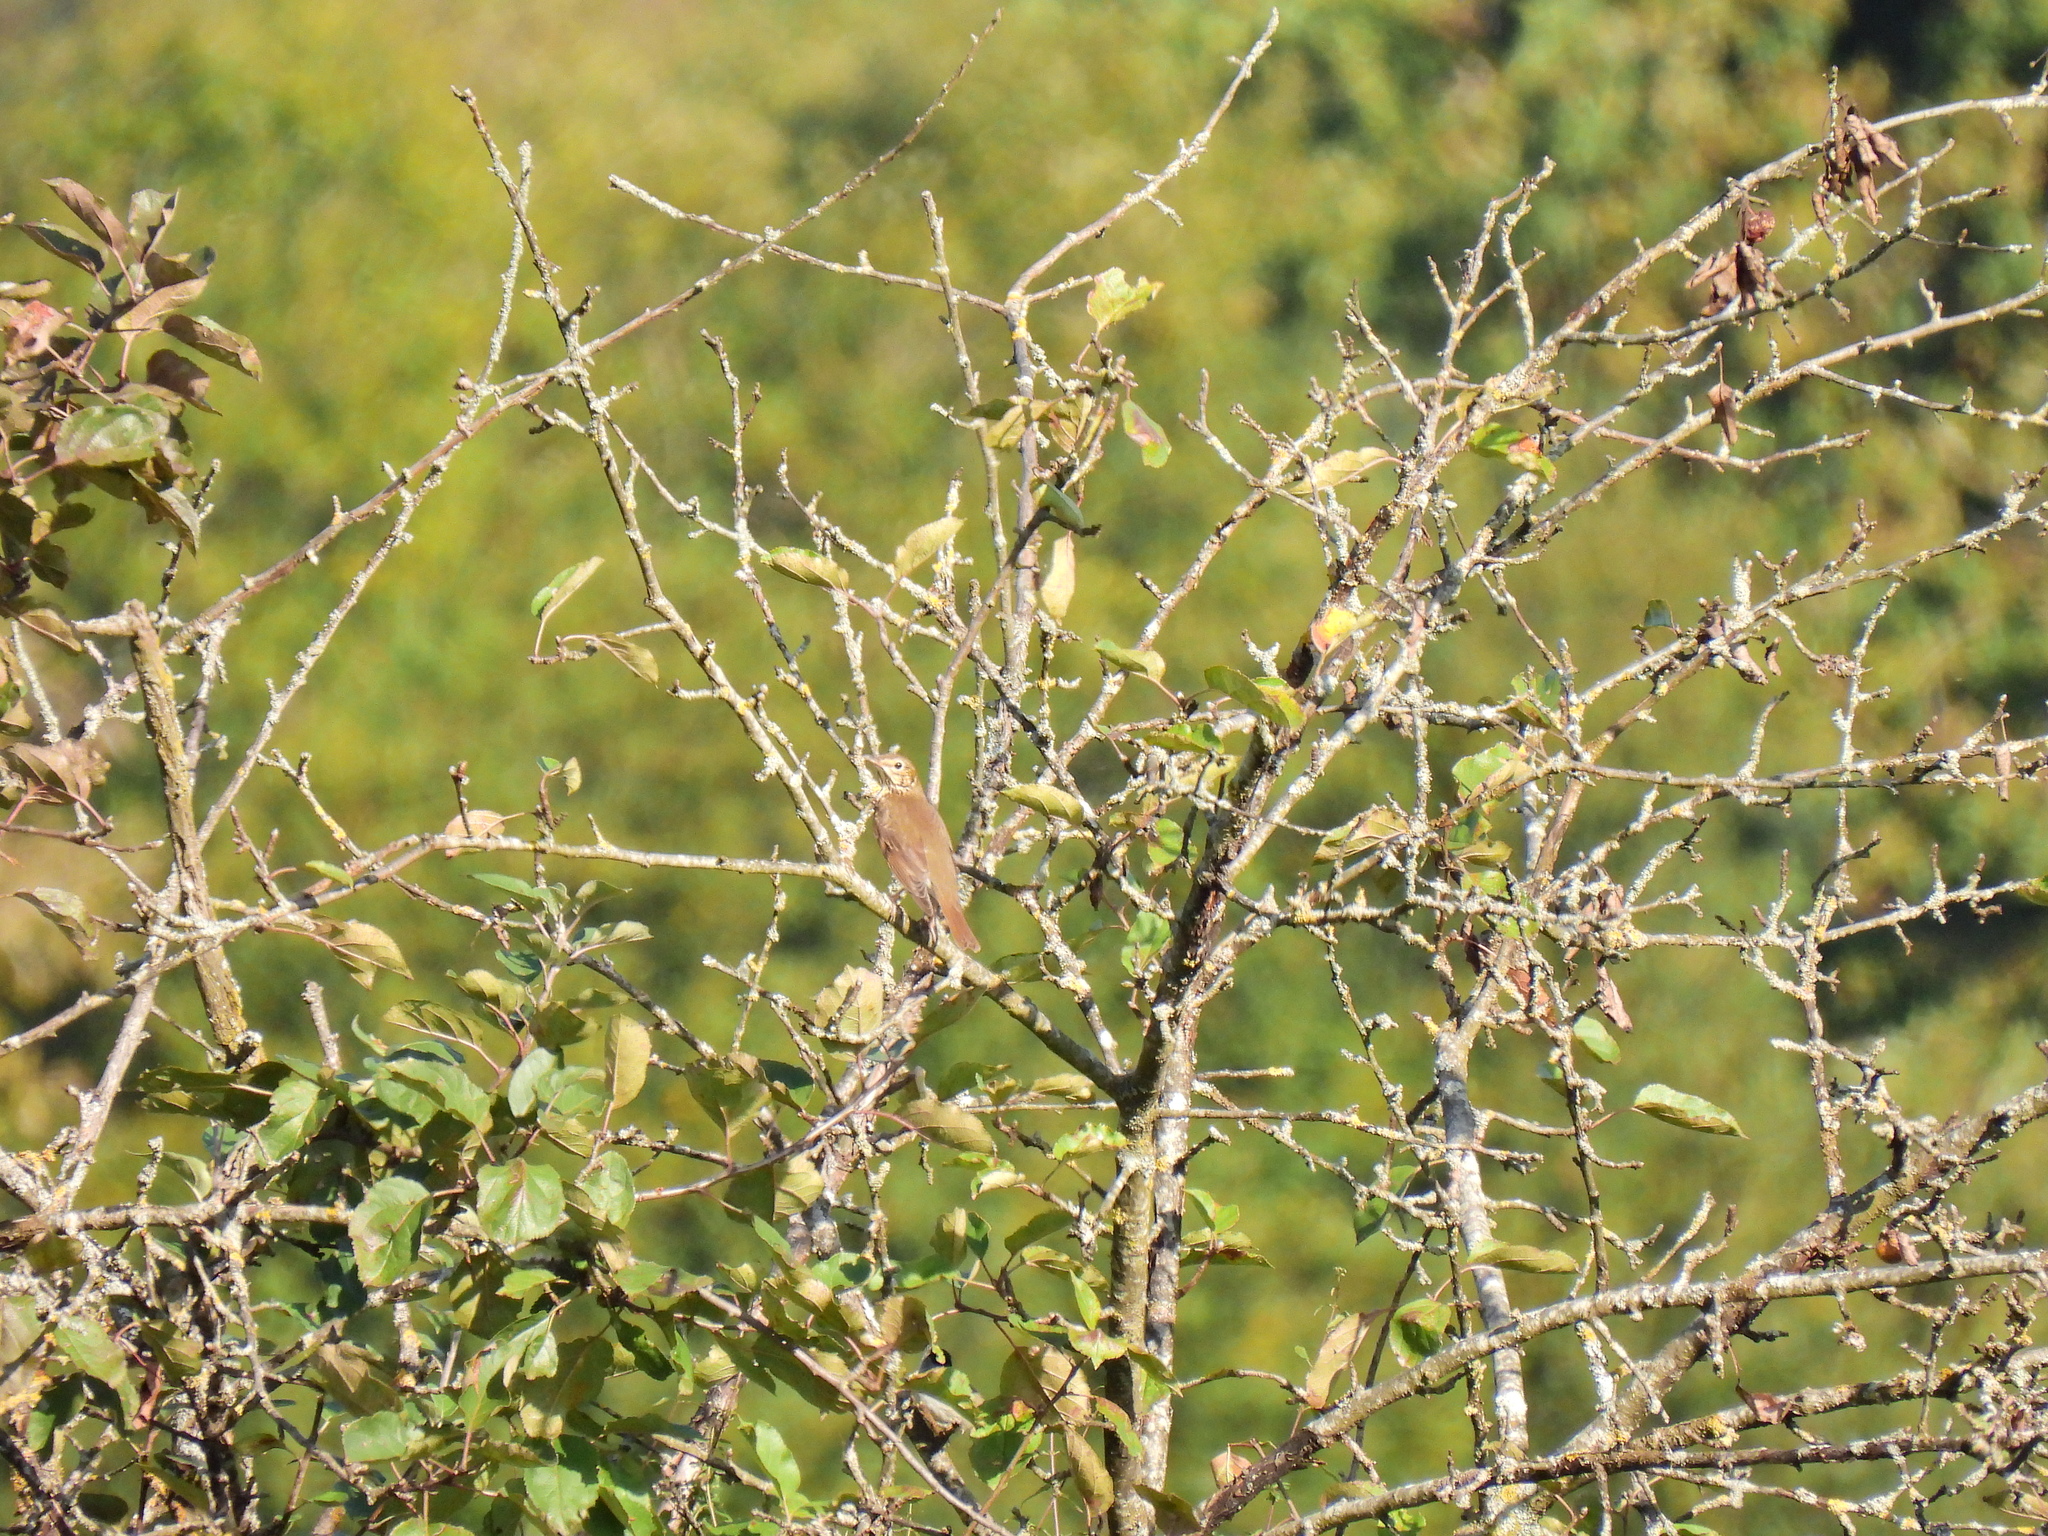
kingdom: Animalia
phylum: Chordata
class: Aves
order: Passeriformes
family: Turdidae
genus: Turdus
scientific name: Turdus philomelos
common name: Song thrush
